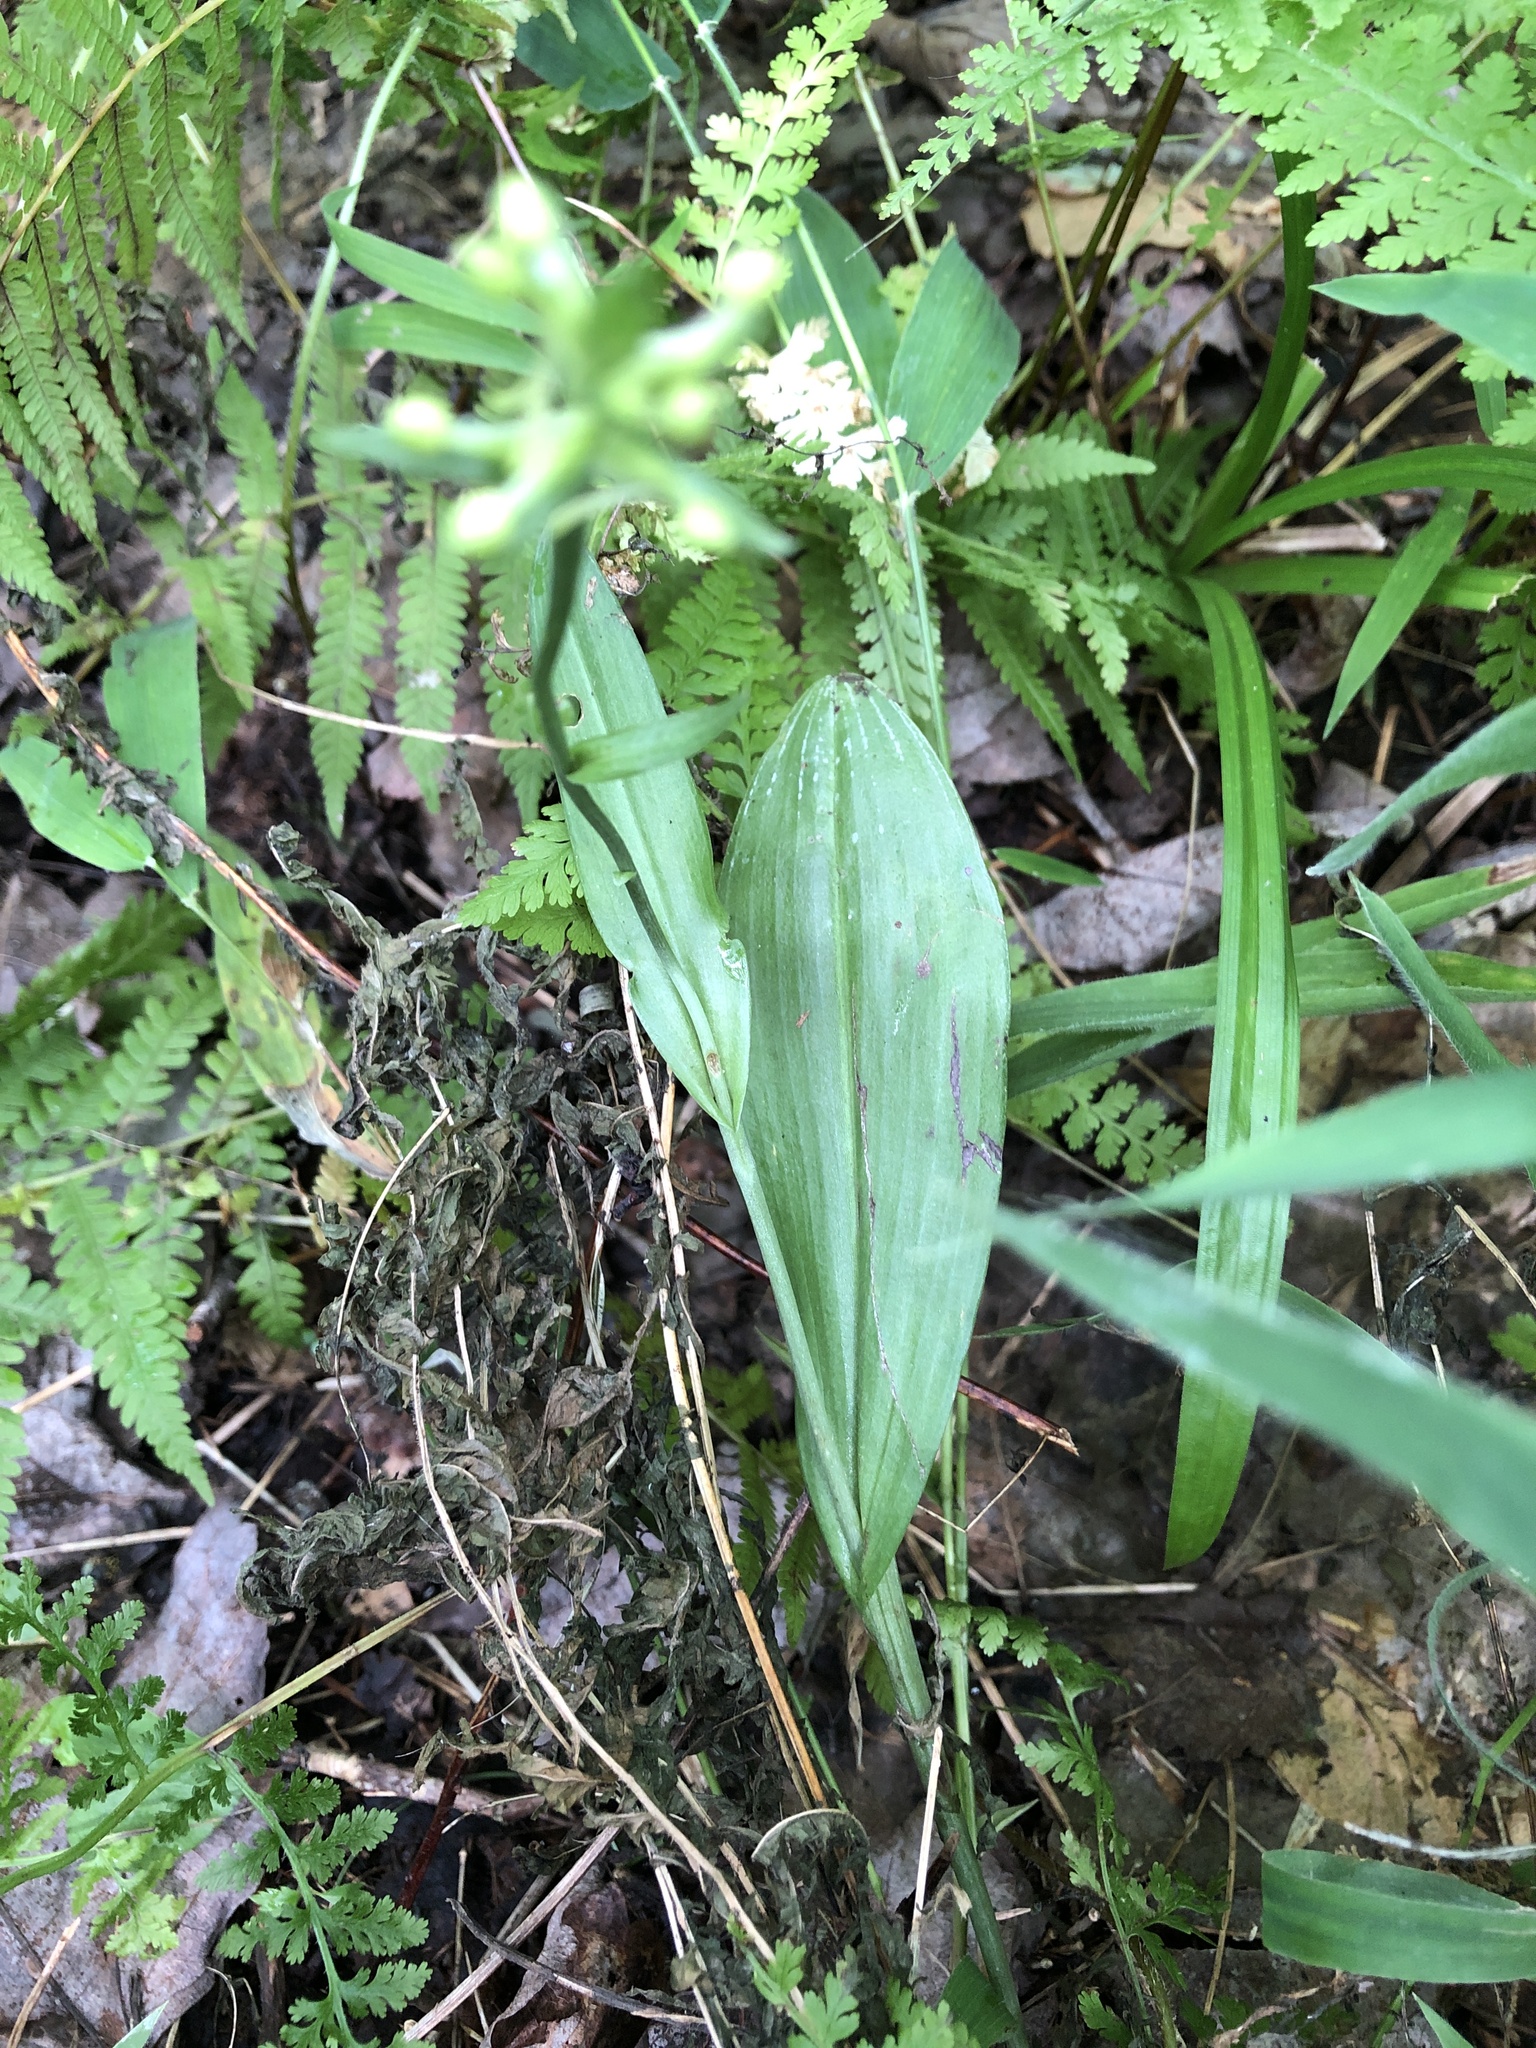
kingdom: Plantae
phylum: Tracheophyta
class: Liliopsida
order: Asparagales
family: Orchidaceae
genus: Platanthera
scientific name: Platanthera clavellata
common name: Club-spur orchid
